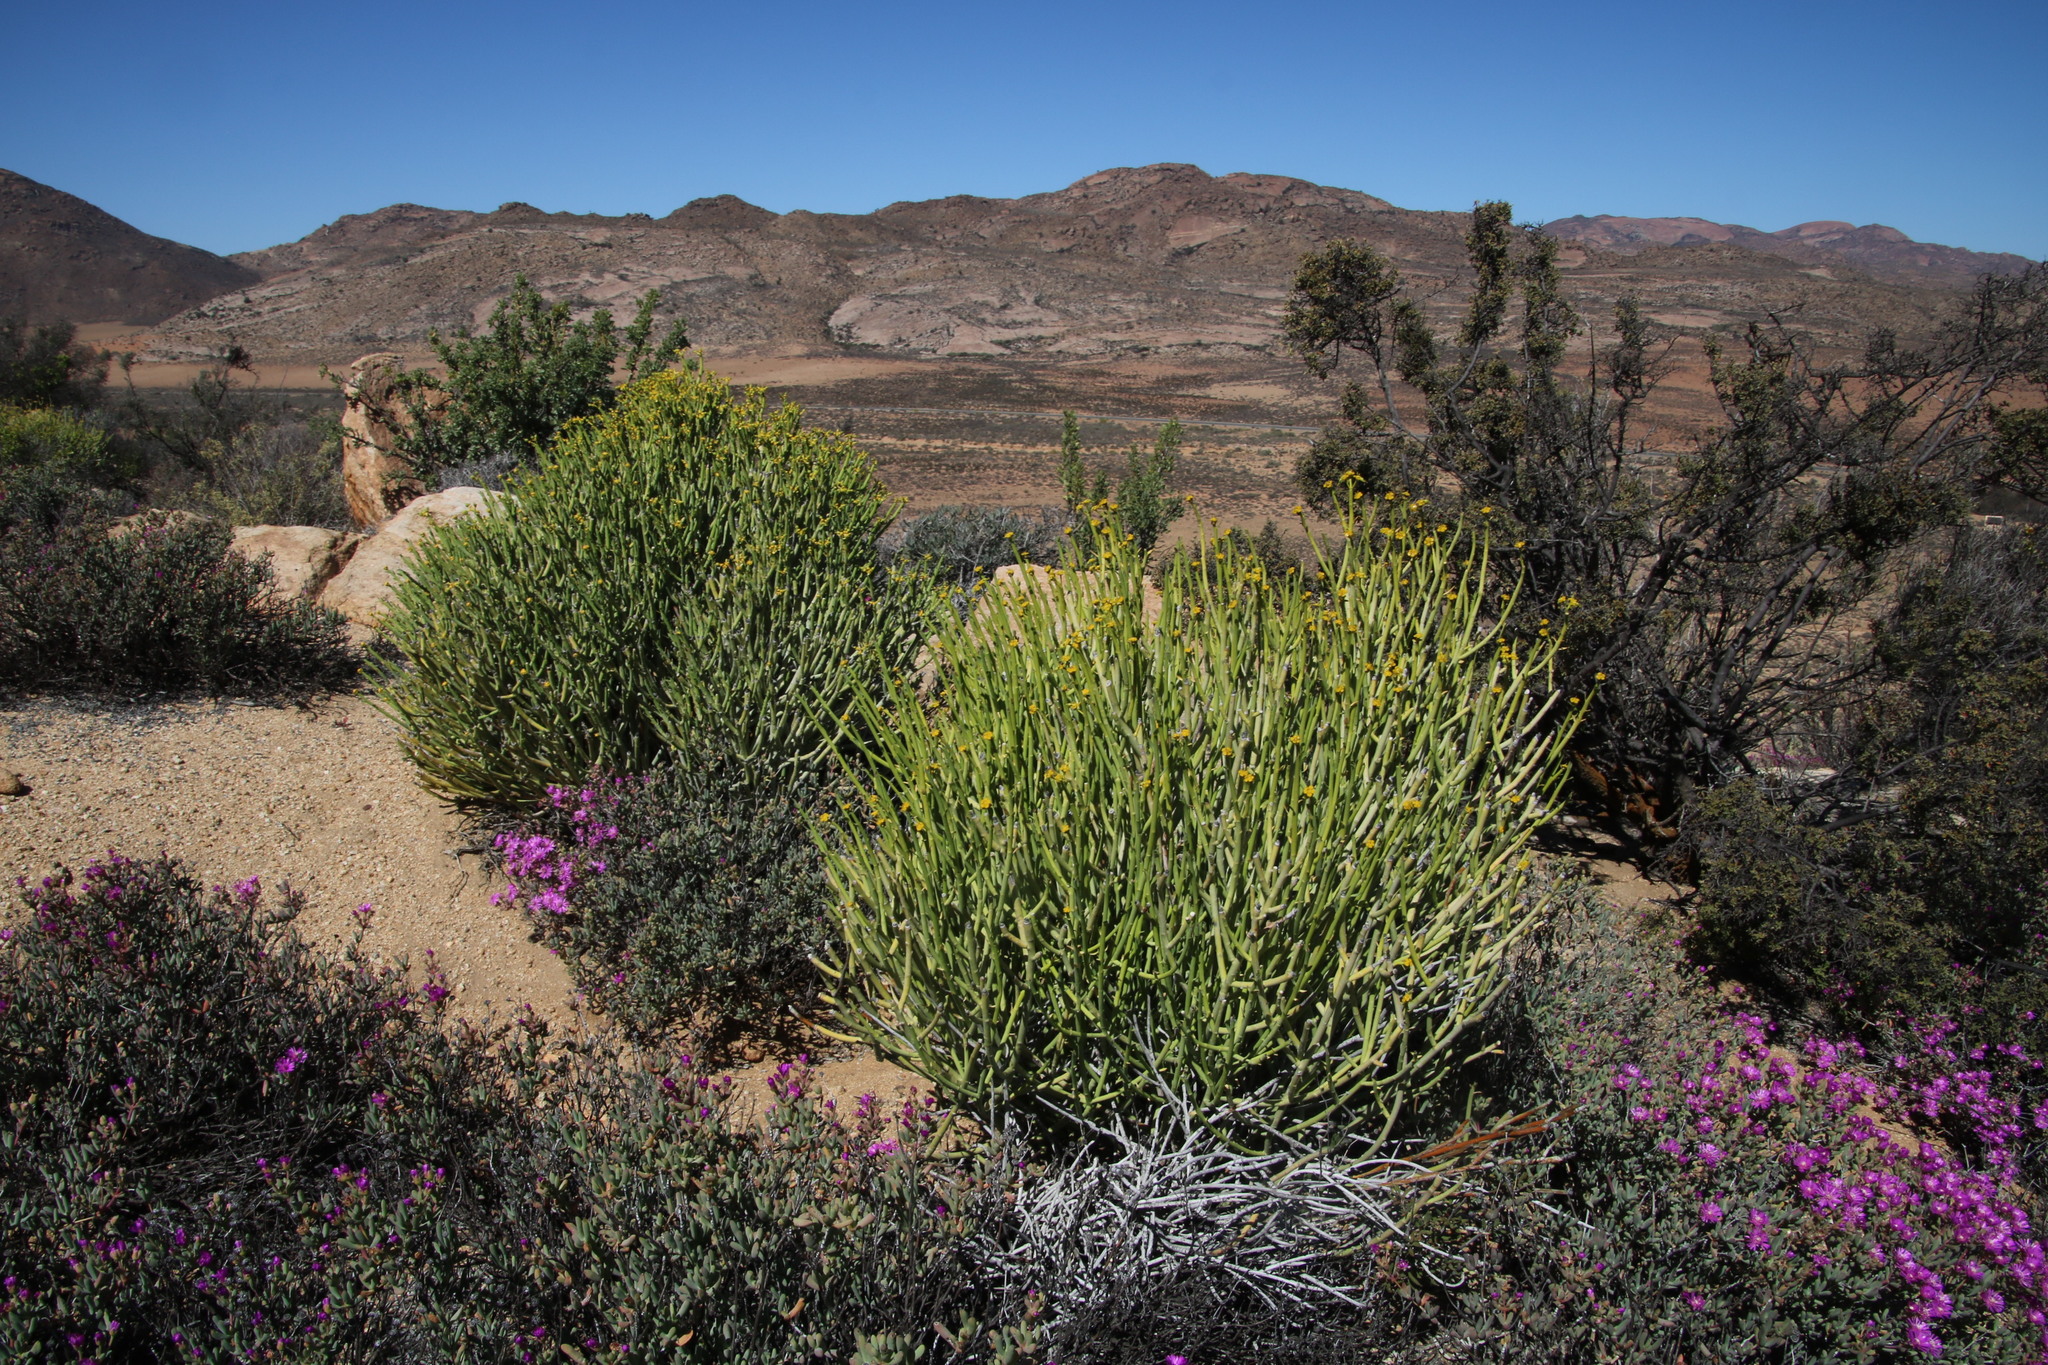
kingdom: Plantae
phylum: Tracheophyta
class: Magnoliopsida
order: Malpighiales
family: Euphorbiaceae
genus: Euphorbia
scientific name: Euphorbia mauritanica
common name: Jackal's-food
